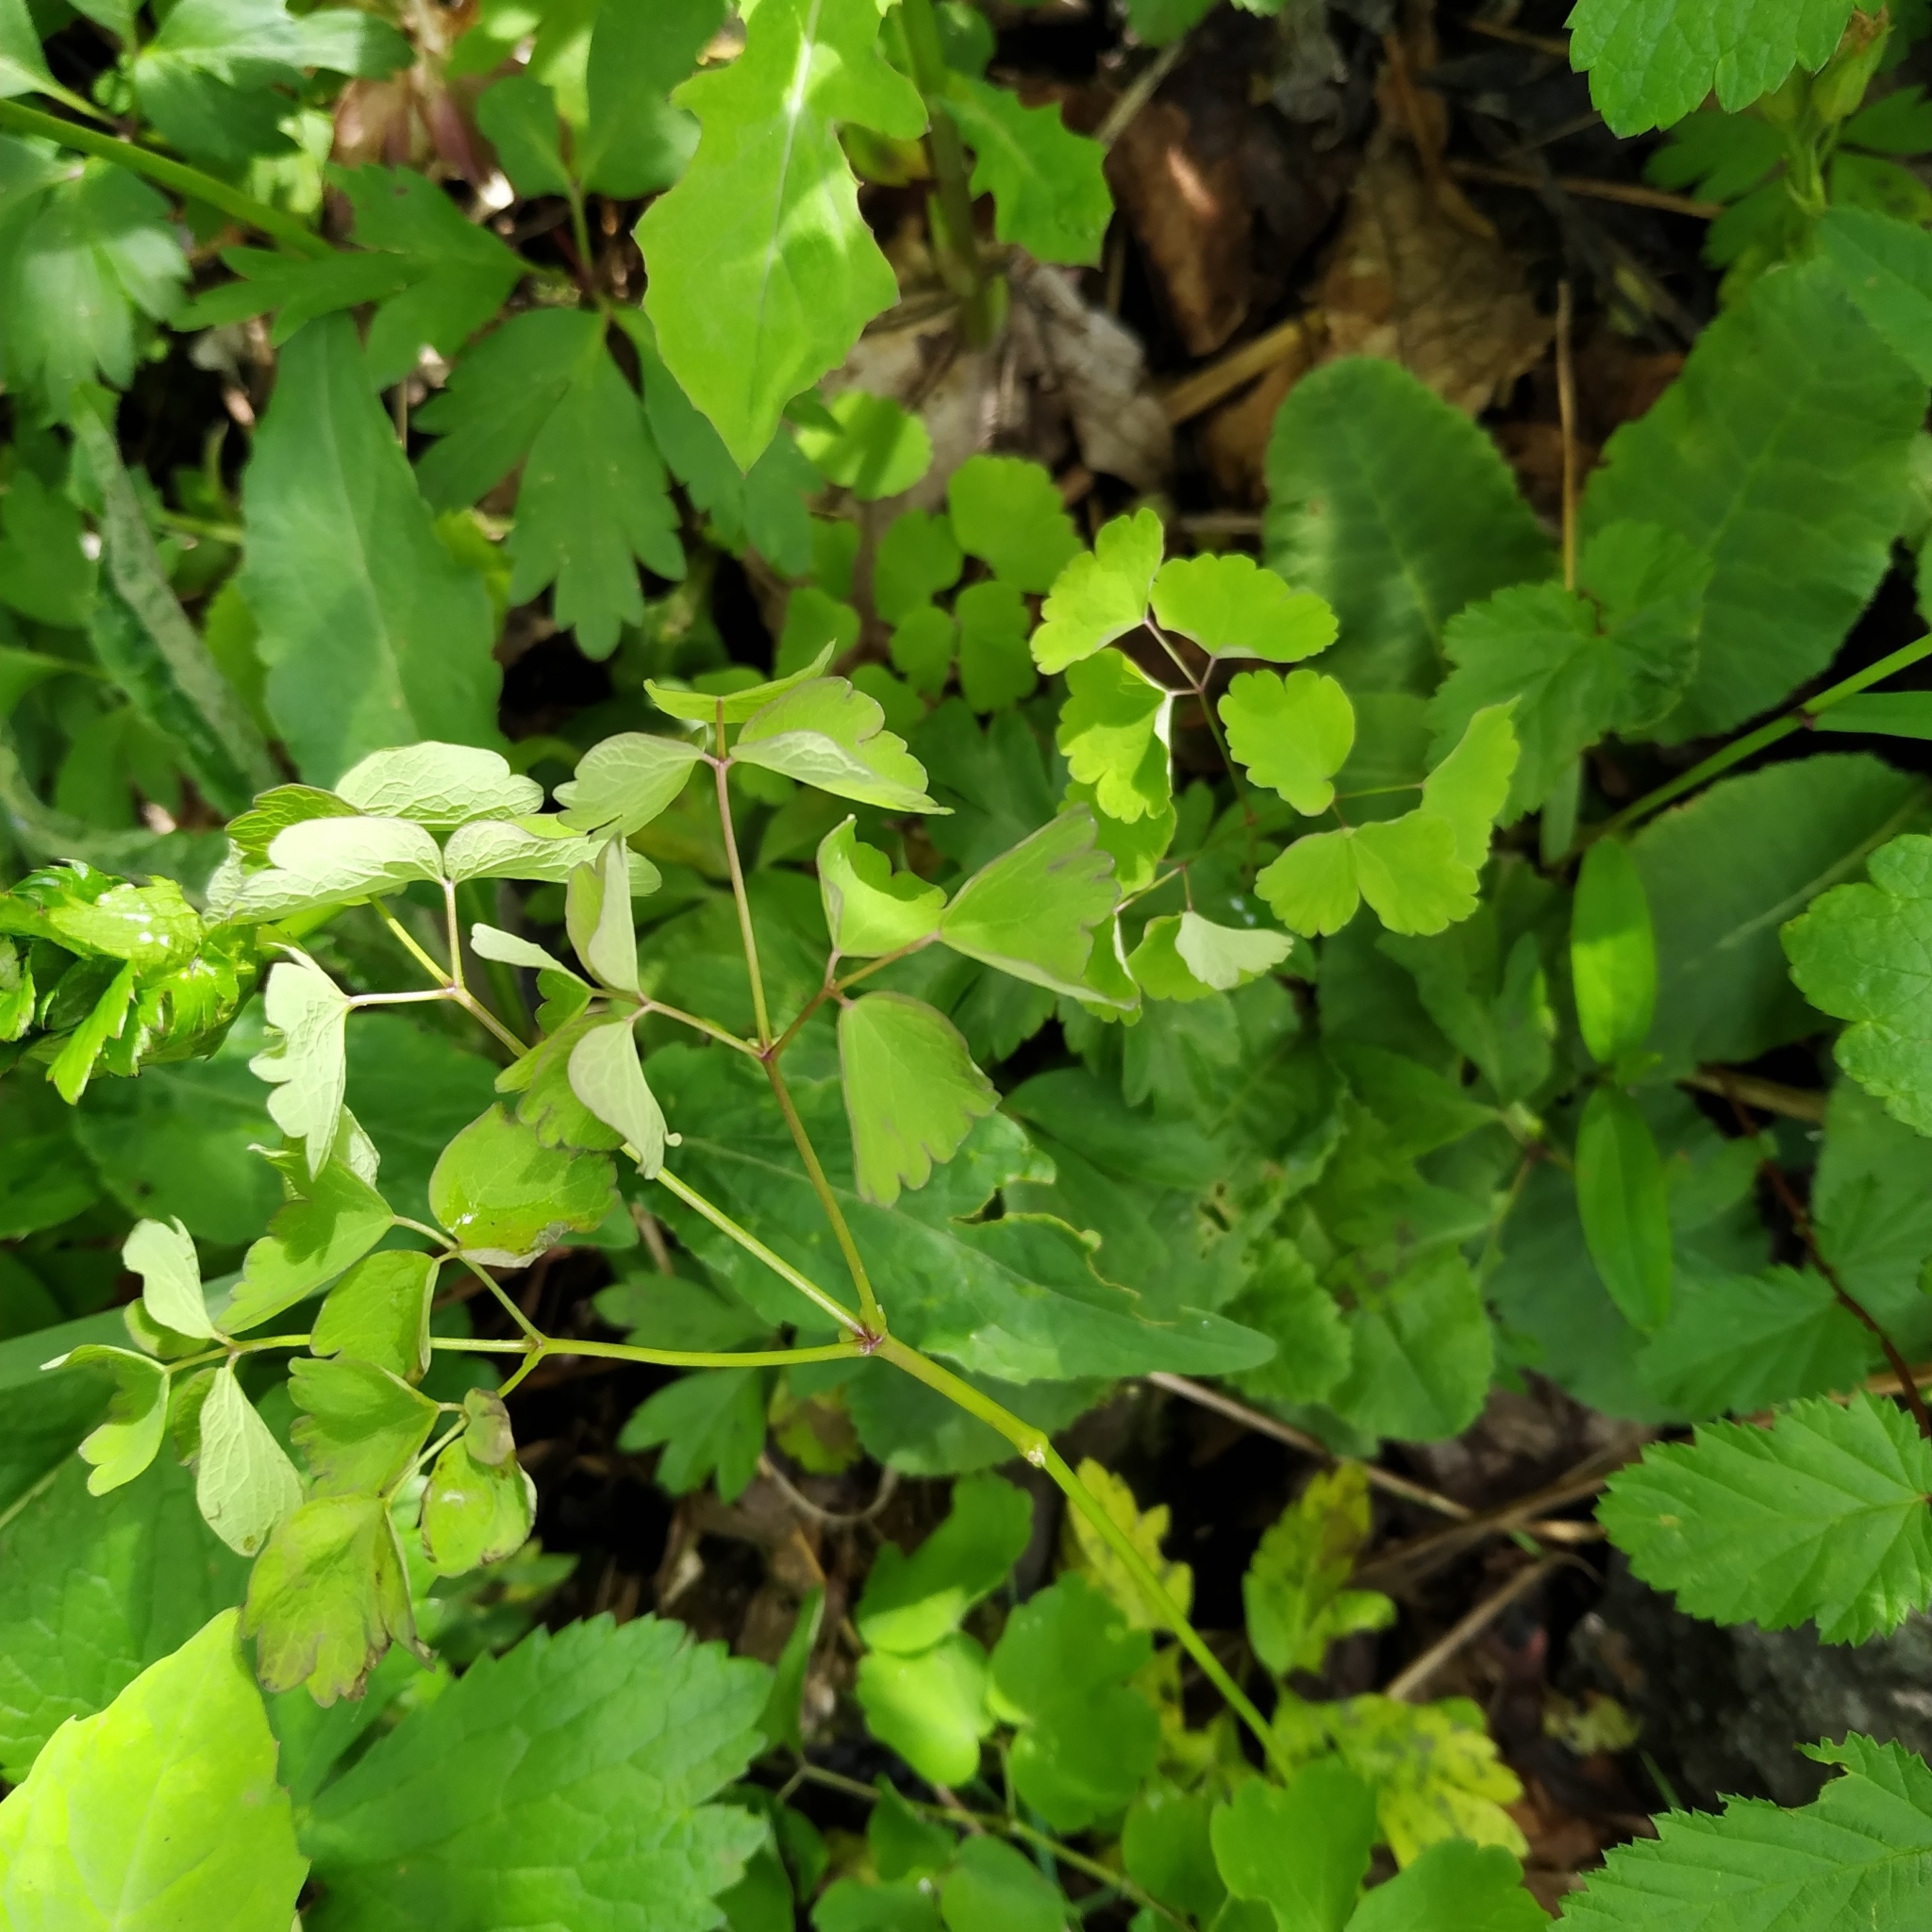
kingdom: Plantae
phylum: Tracheophyta
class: Magnoliopsida
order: Ranunculales
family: Ranunculaceae
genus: Thalictrum
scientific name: Thalictrum aquilegiifolium
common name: French meadow-rue
